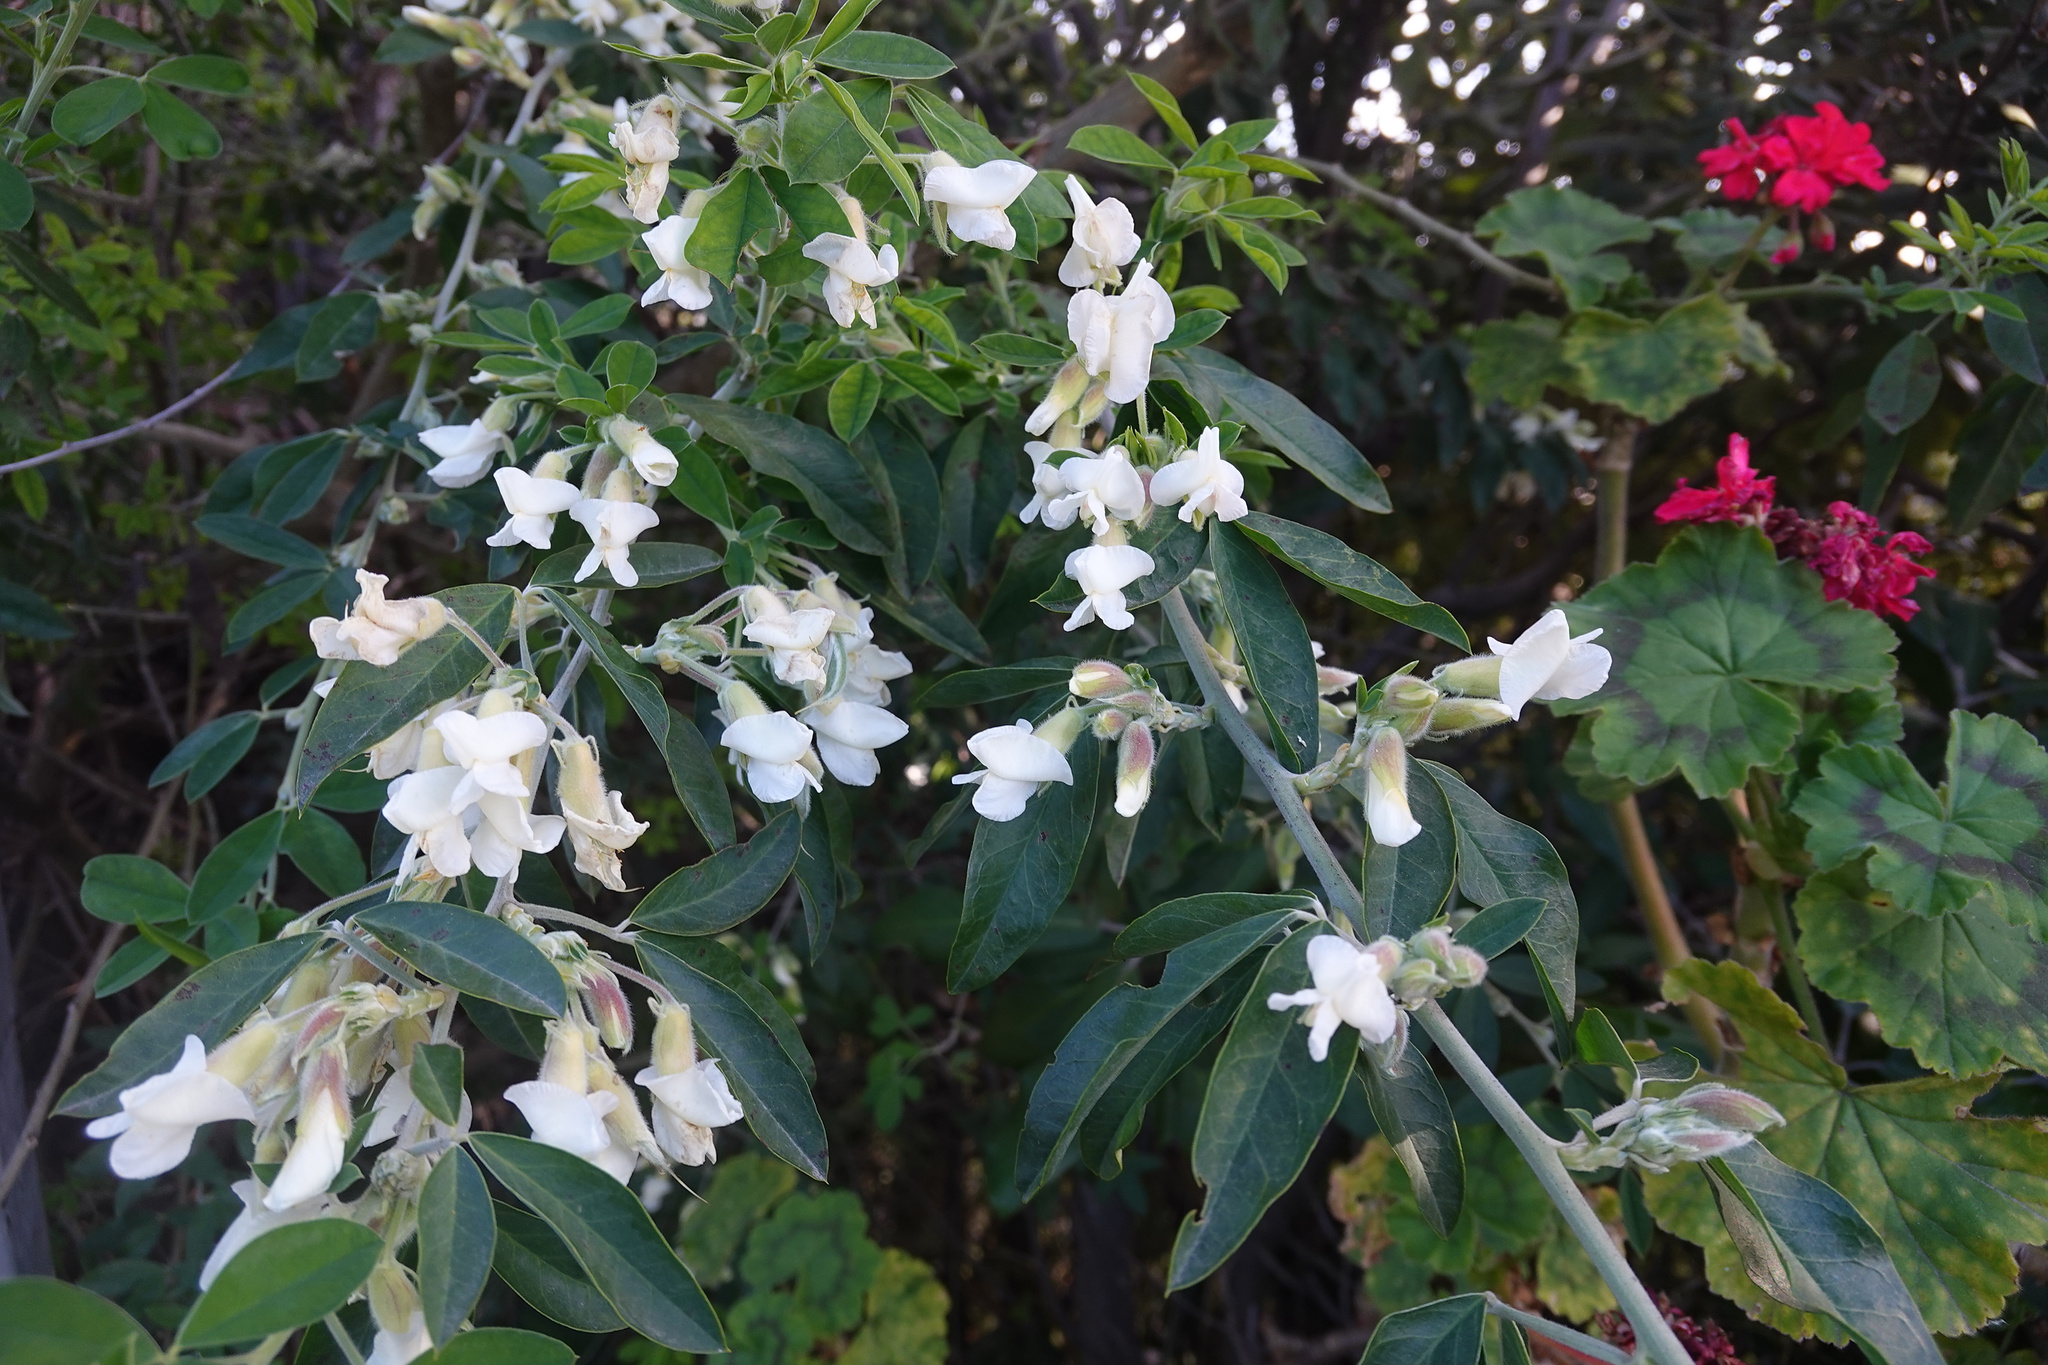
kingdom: Plantae
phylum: Tracheophyta
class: Magnoliopsida
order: Fabales
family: Fabaceae
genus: Chamaecytisus
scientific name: Chamaecytisus prolifer
